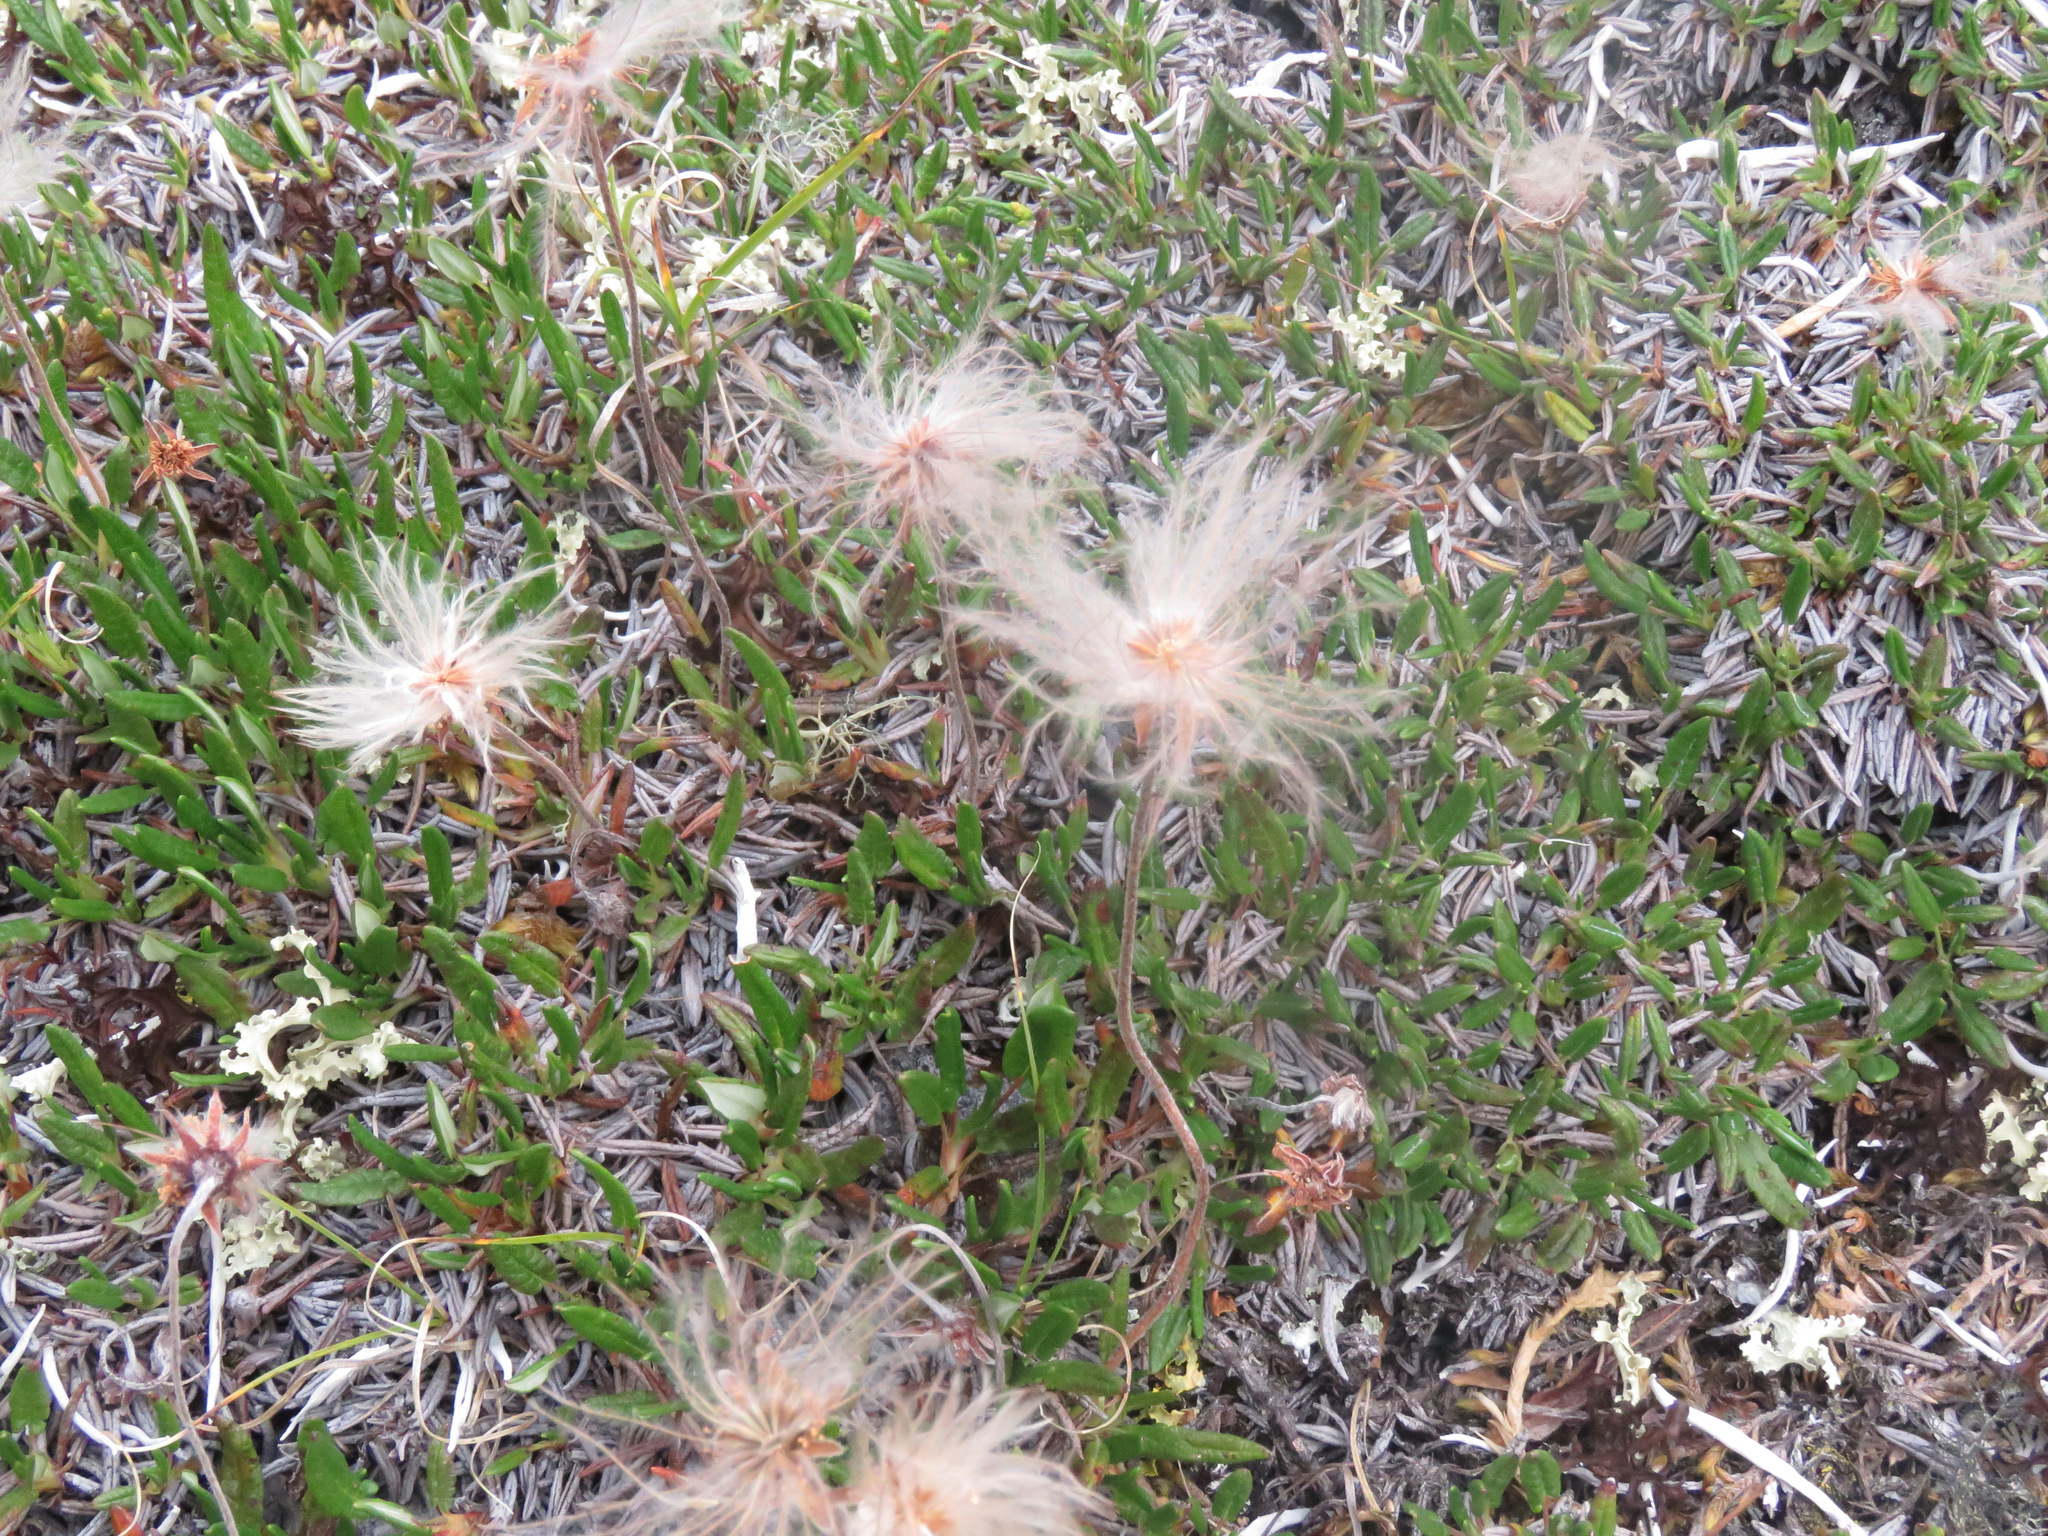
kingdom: Plantae
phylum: Tracheophyta
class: Magnoliopsida
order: Rosales
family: Rosaceae
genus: Dryas
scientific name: Dryas integrifolia
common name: Entire-leaved mountain avens
